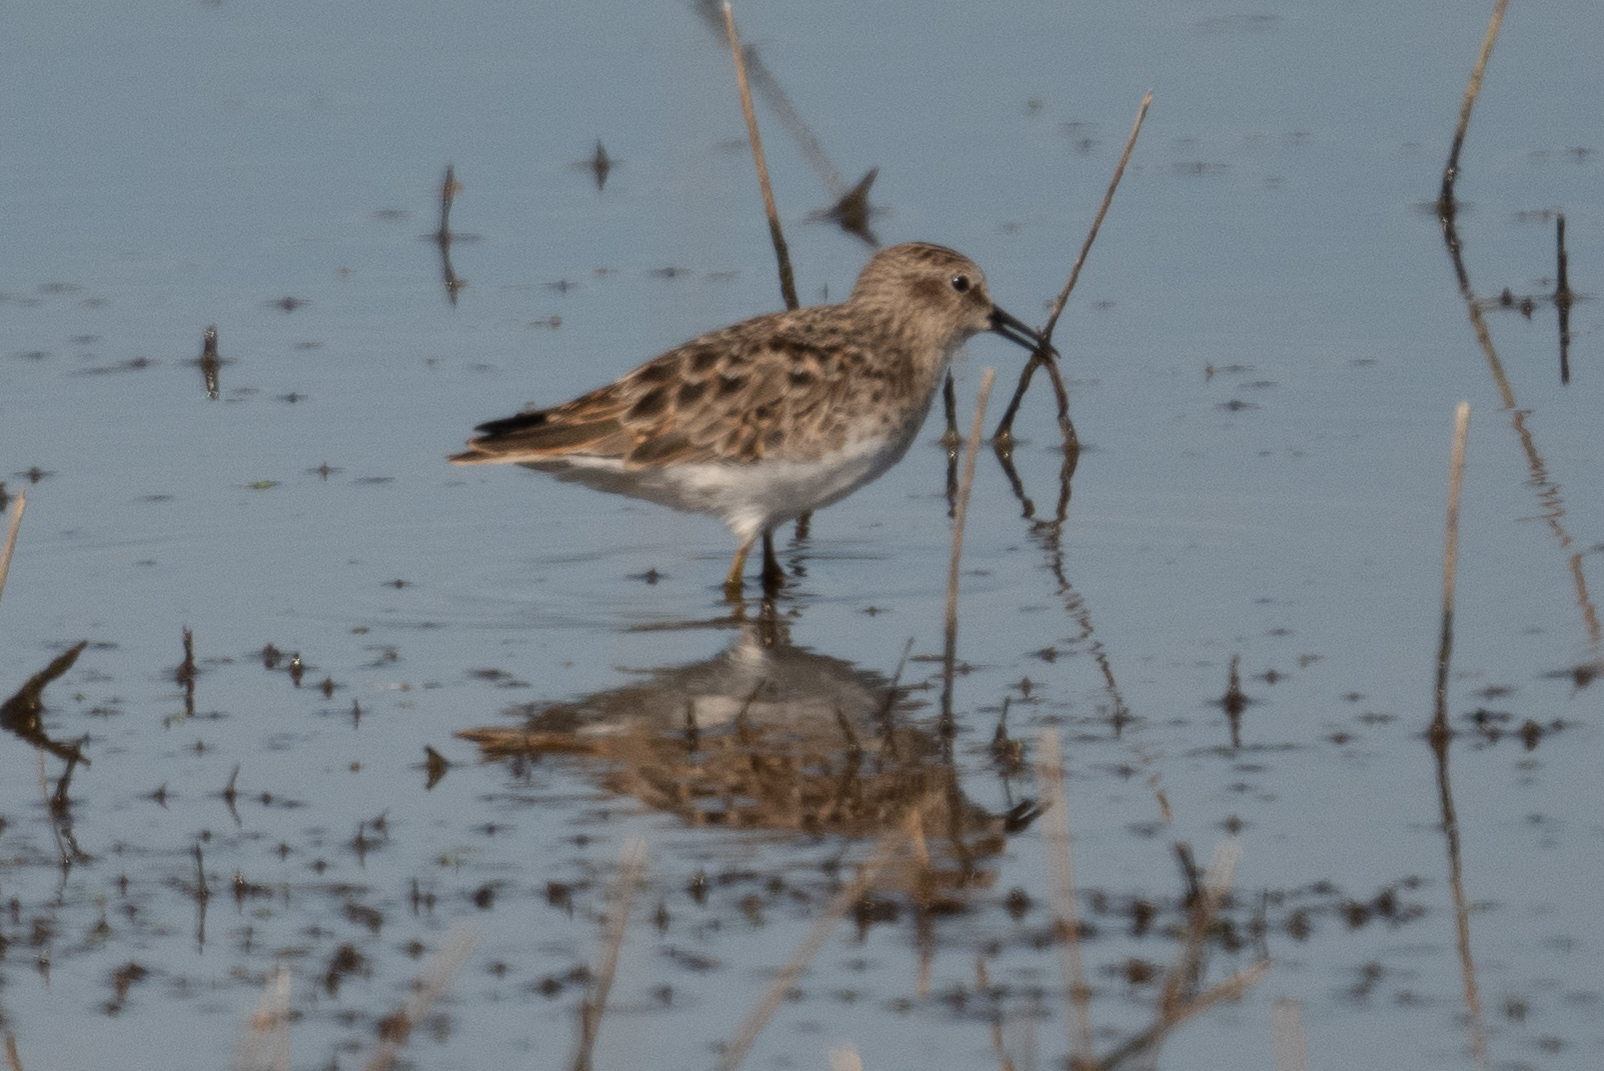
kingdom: Animalia
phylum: Chordata
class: Aves
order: Charadriiformes
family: Scolopacidae
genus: Calidris
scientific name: Calidris minutilla
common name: Least sandpiper
